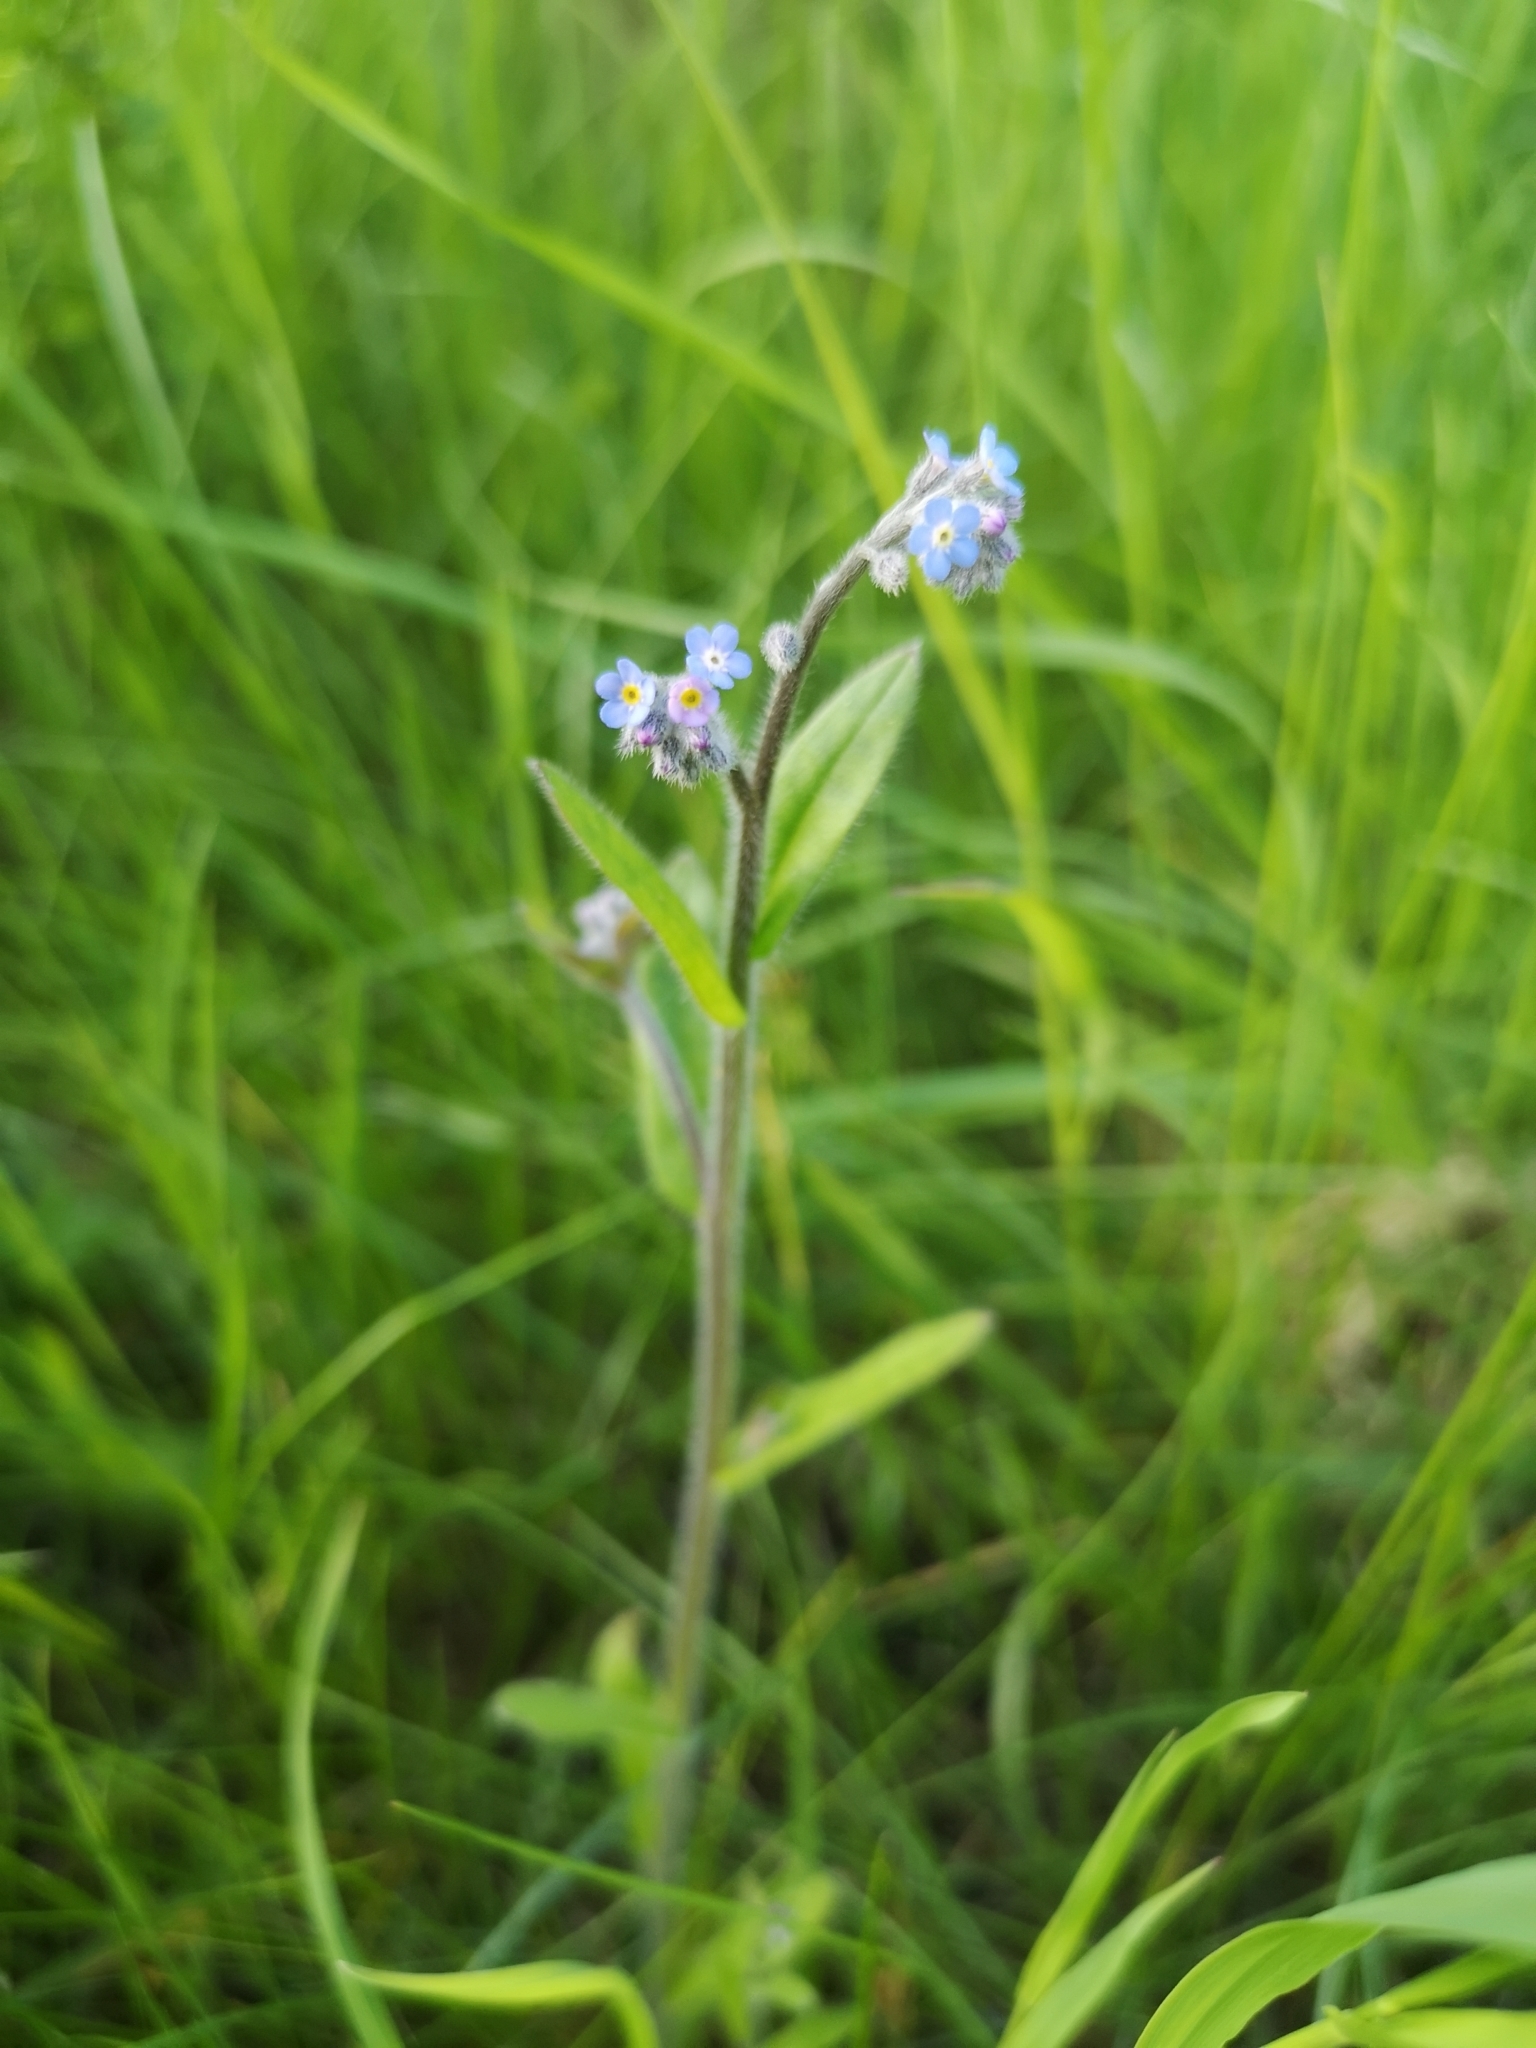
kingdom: Plantae
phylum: Tracheophyta
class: Magnoliopsida
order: Boraginales
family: Boraginaceae
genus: Myosotis
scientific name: Myosotis arvensis
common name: Field forget-me-not
